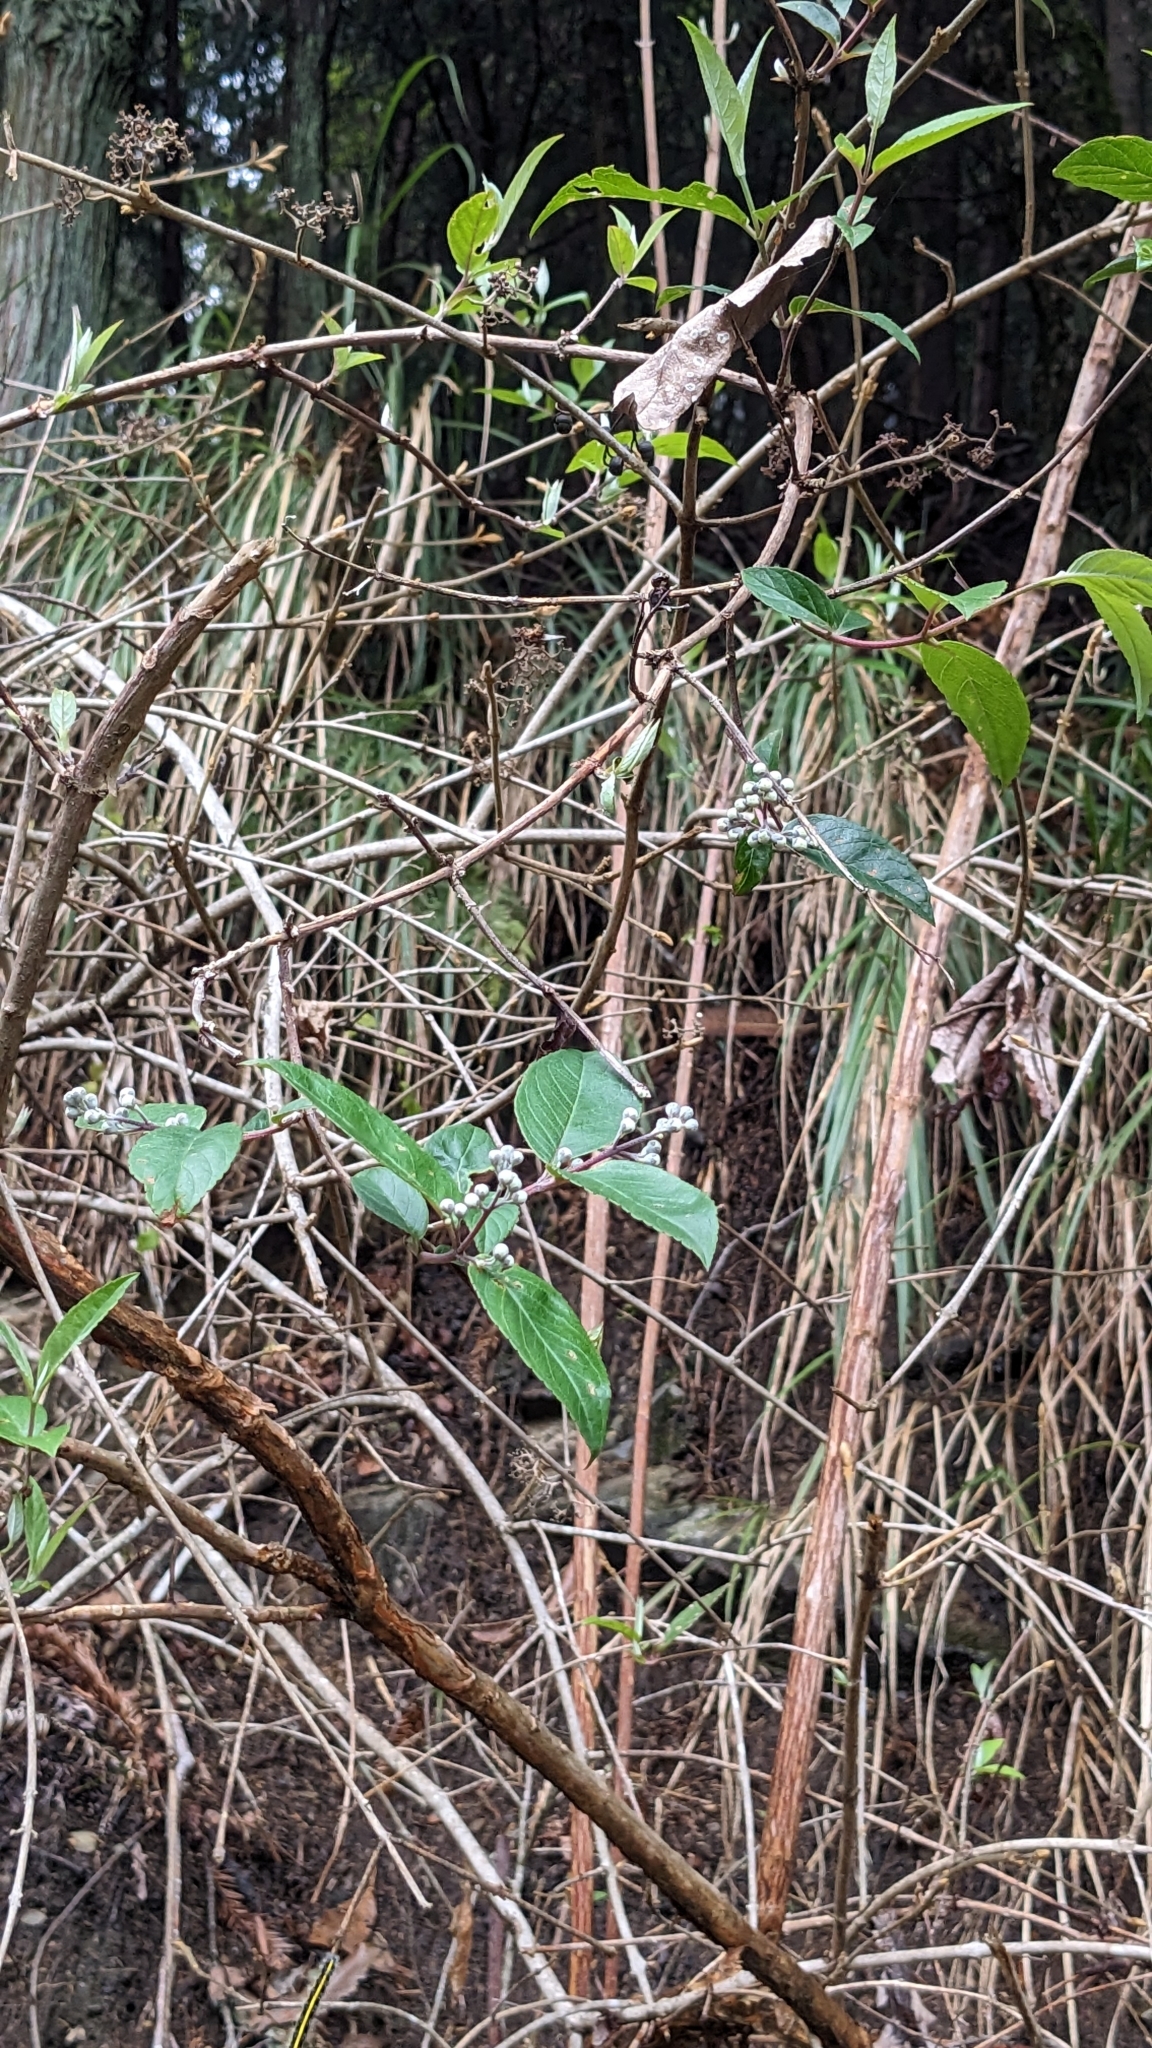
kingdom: Plantae
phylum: Tracheophyta
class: Magnoliopsida
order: Cornales
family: Hydrangeaceae
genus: Deutzia
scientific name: Deutzia pulchra
